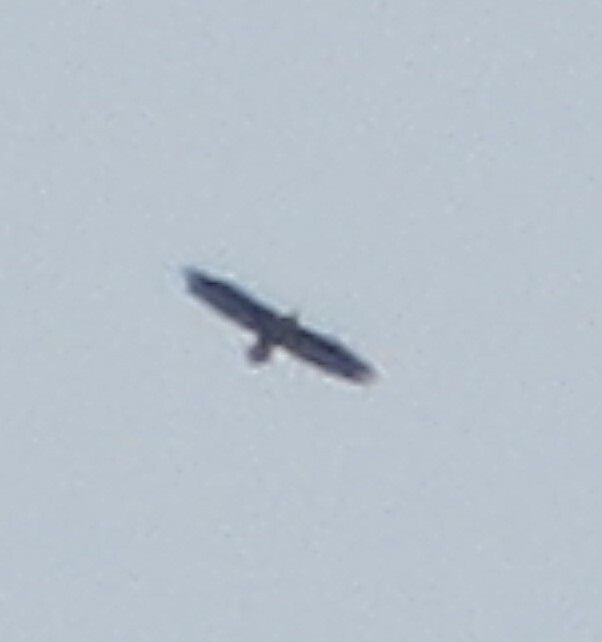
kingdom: Animalia
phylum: Chordata
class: Aves
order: Accipitriformes
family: Accipitridae
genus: Haliaeetus
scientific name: Haliaeetus leucocephalus
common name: Bald eagle
